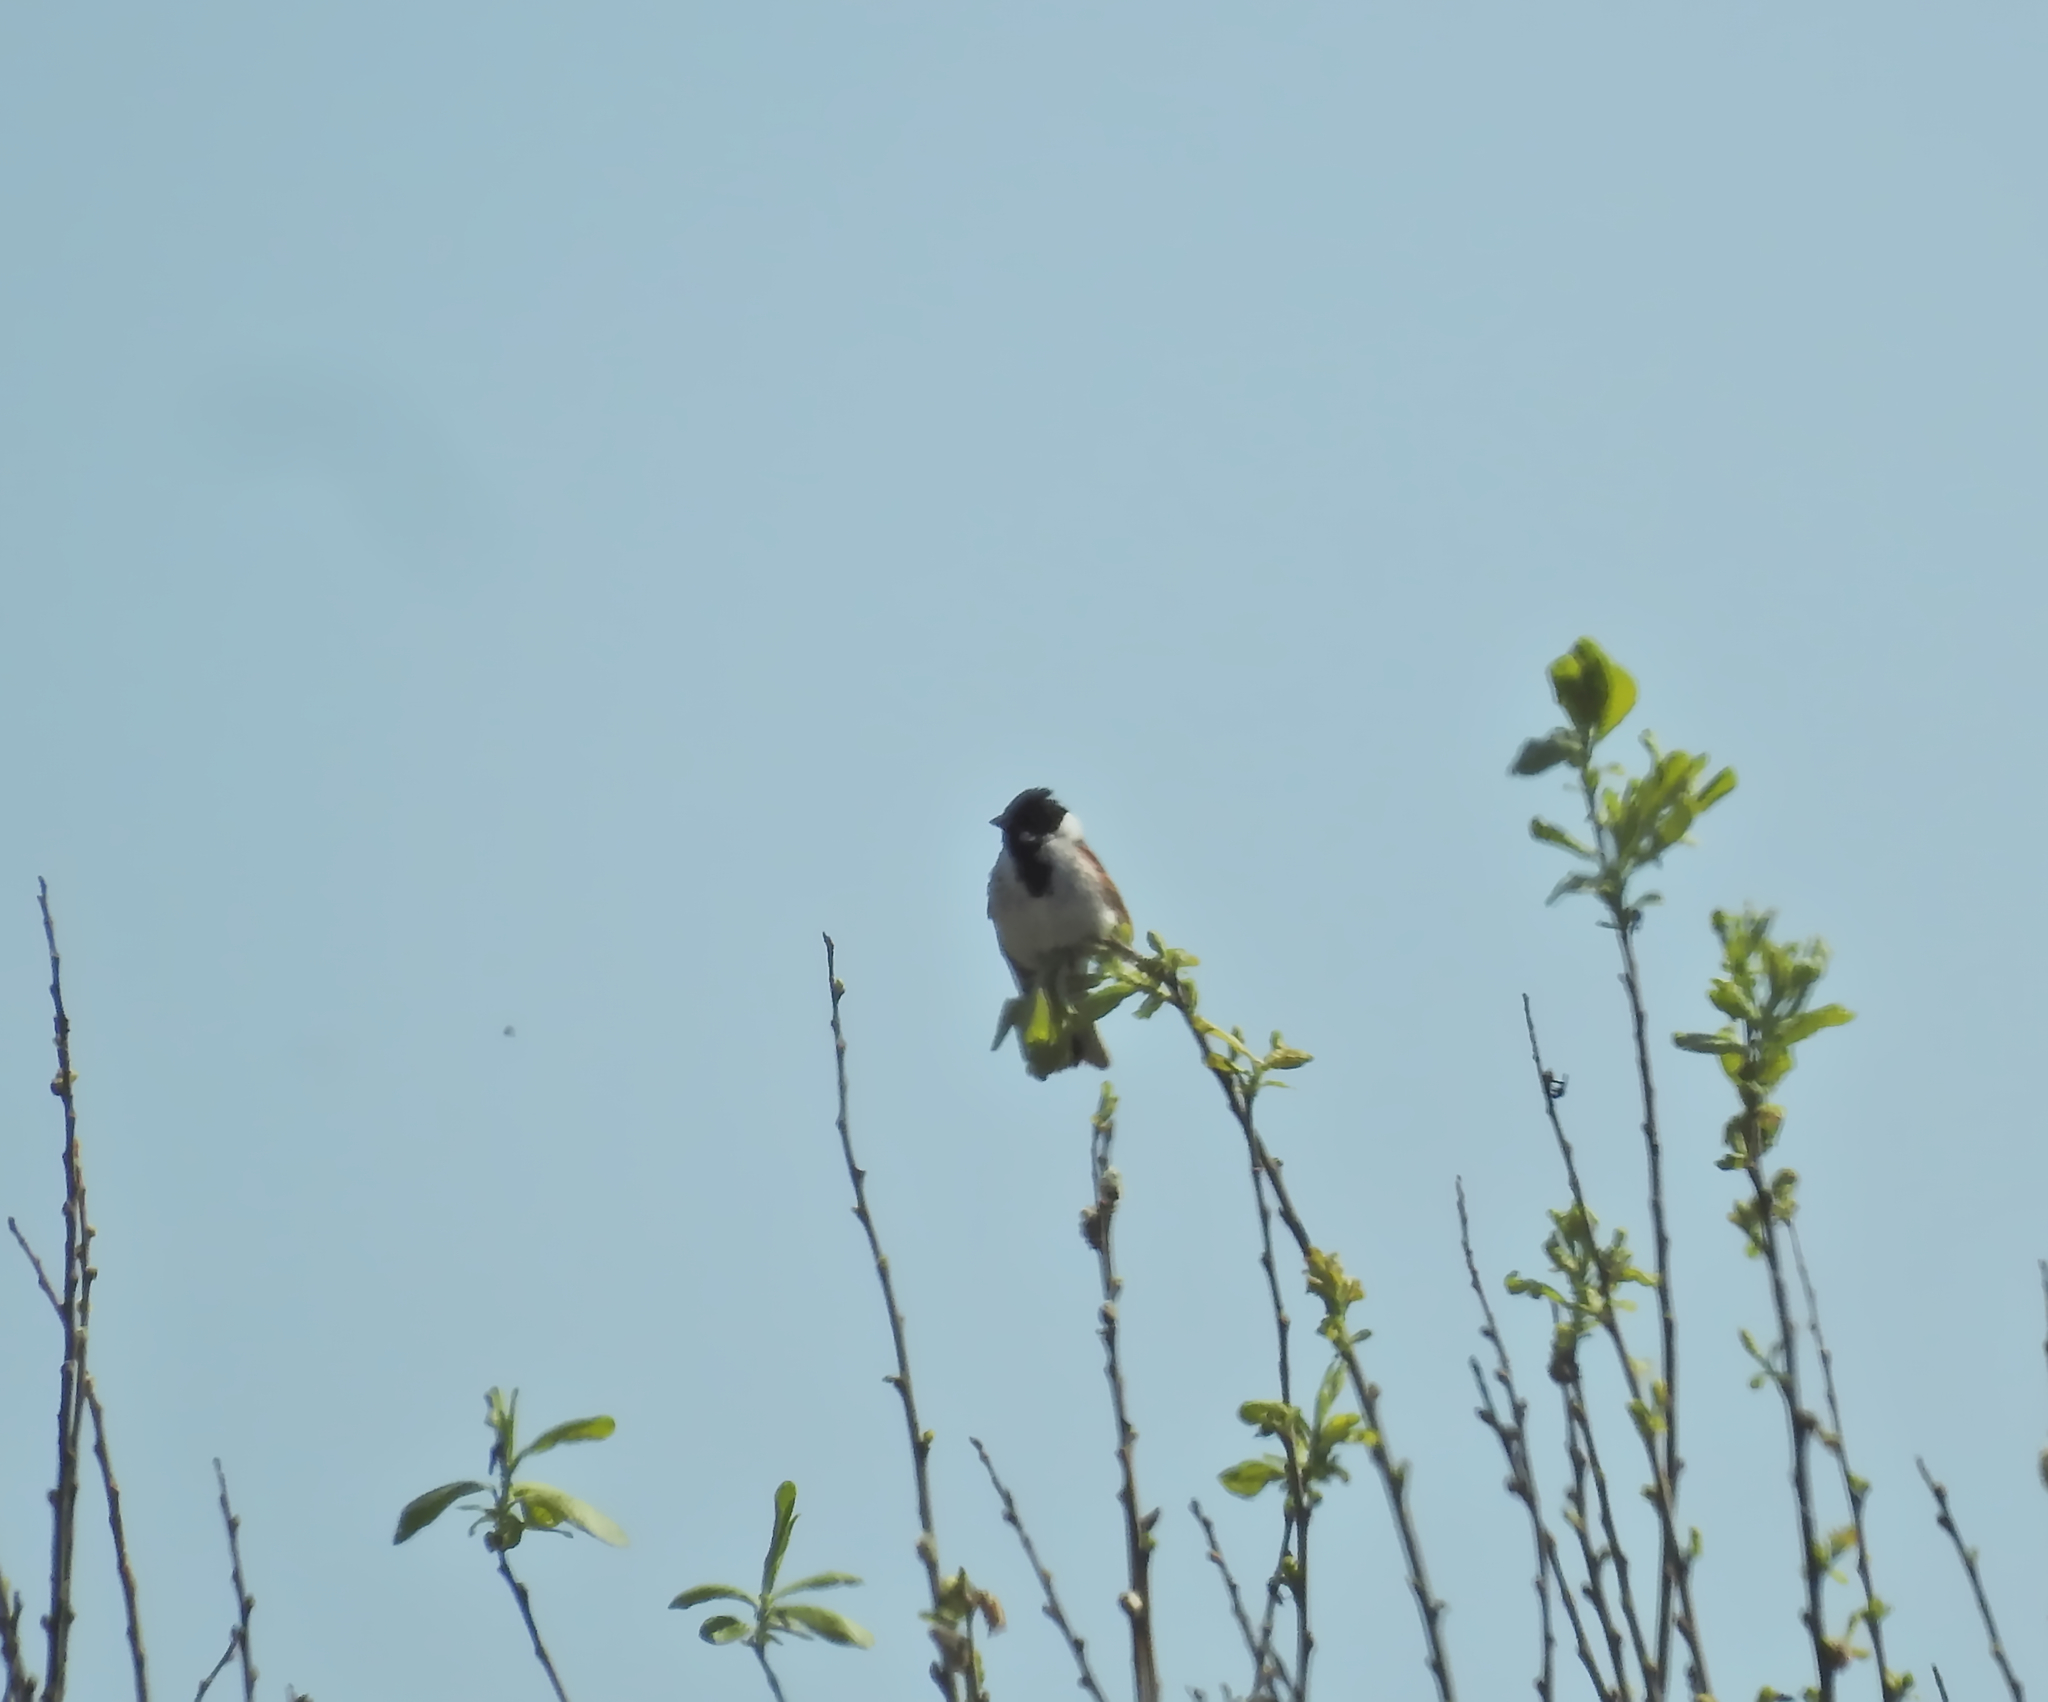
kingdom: Animalia
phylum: Chordata
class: Aves
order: Passeriformes
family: Emberizidae
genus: Emberiza
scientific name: Emberiza schoeniclus
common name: Reed bunting
